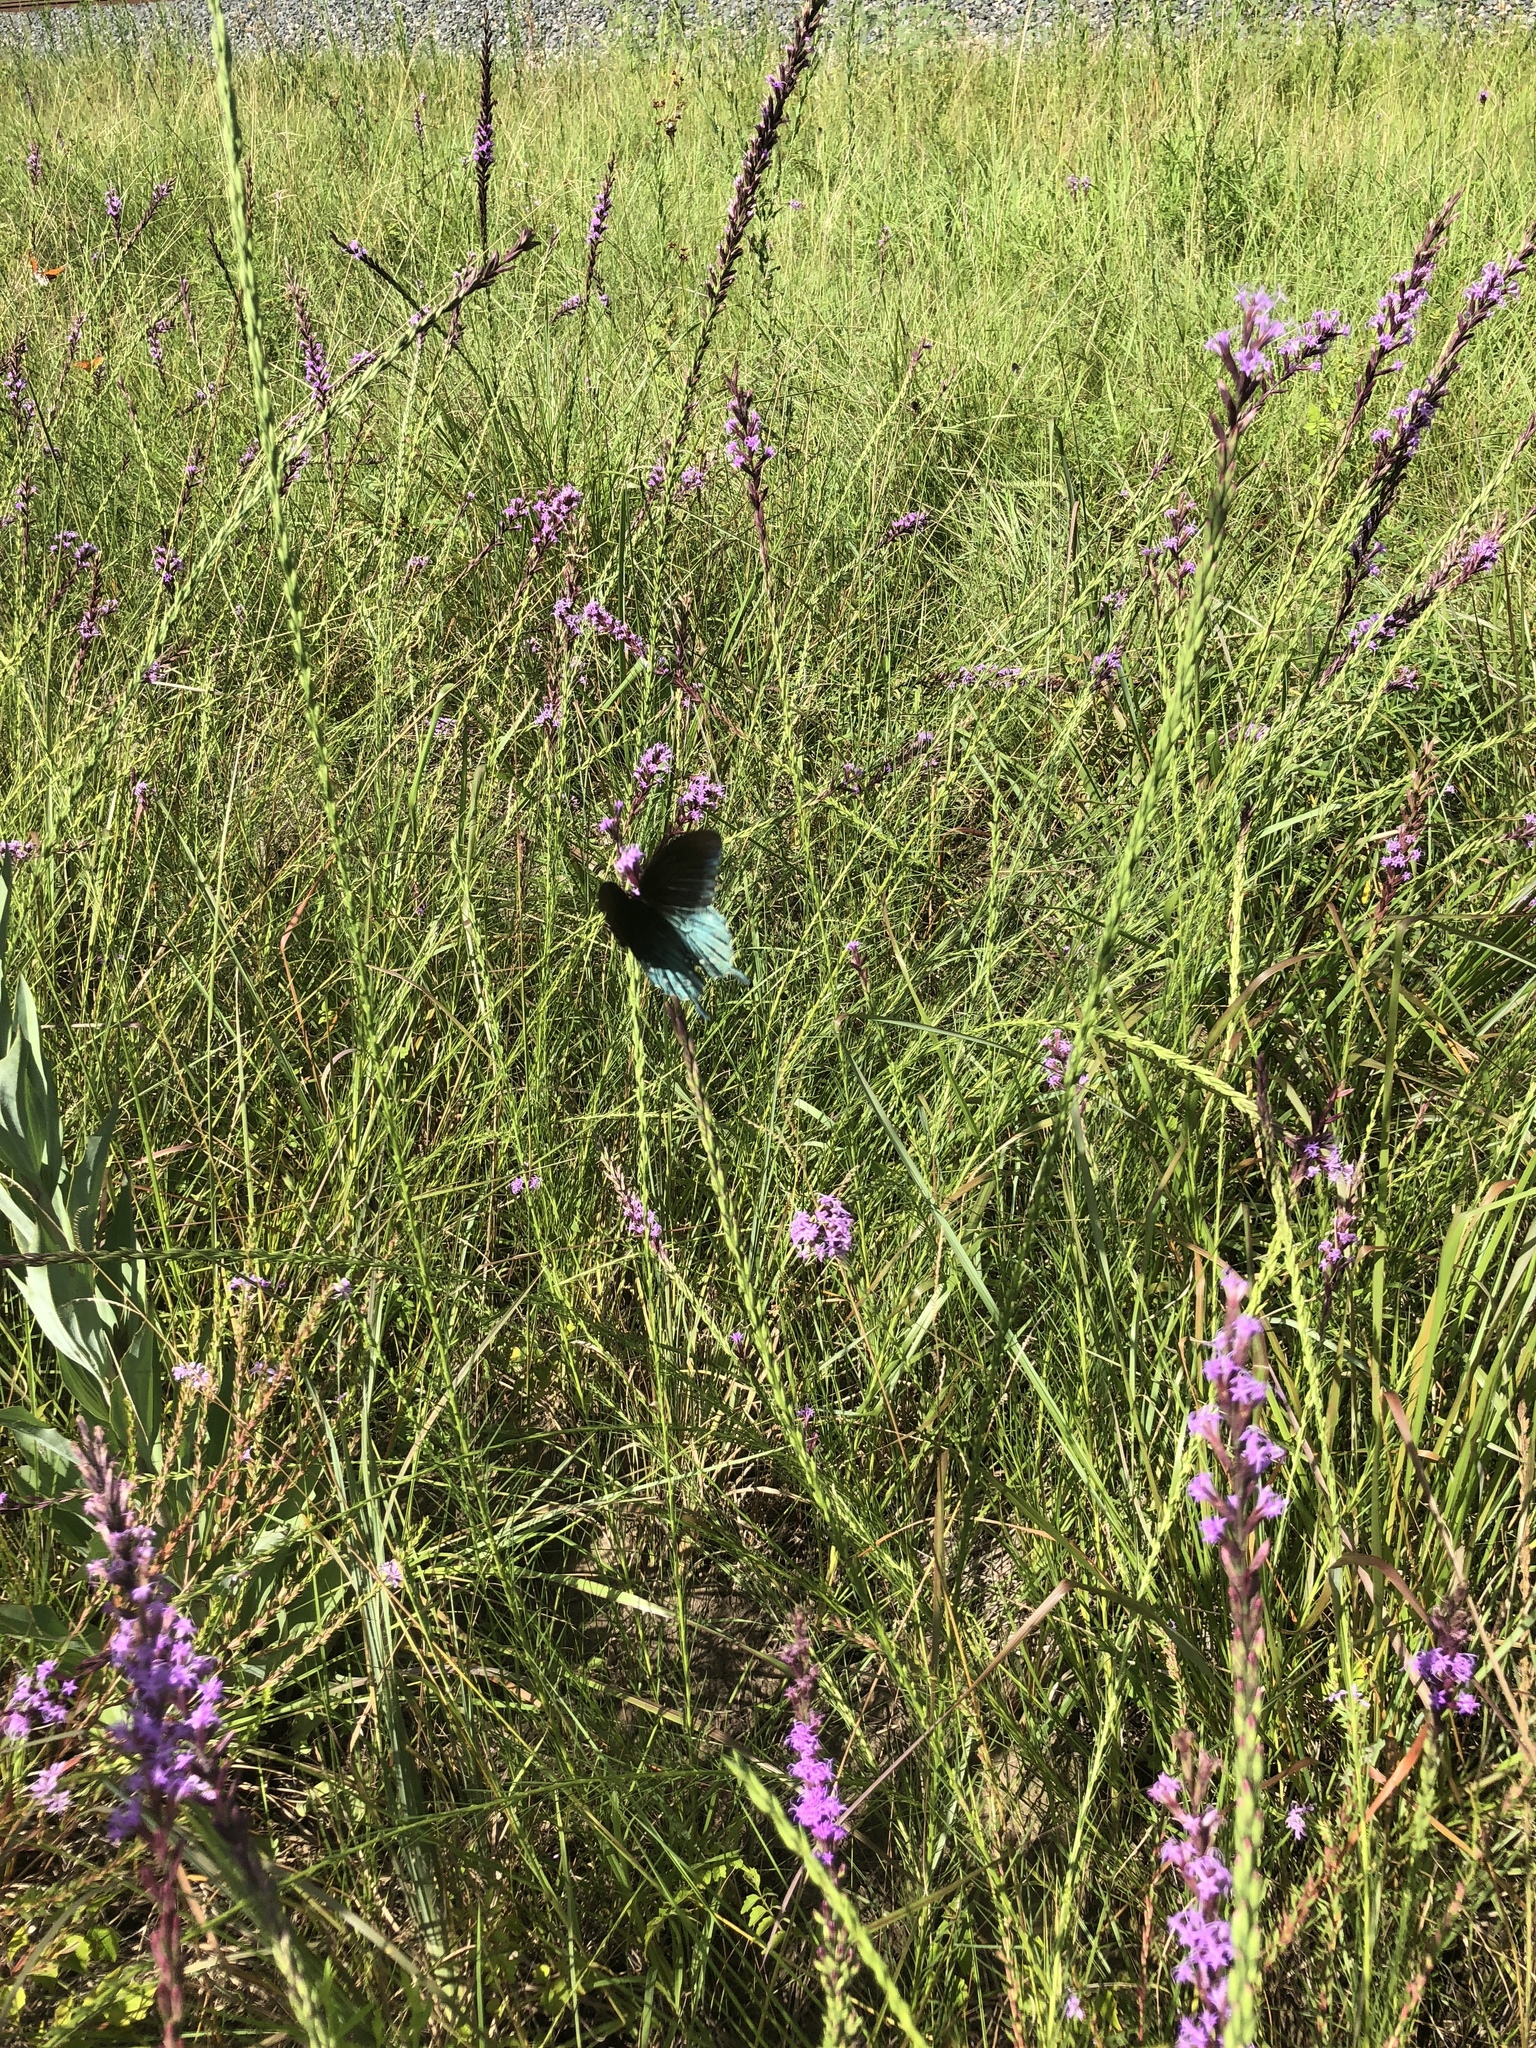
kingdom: Animalia
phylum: Arthropoda
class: Insecta
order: Lepidoptera
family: Papilionidae
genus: Battus
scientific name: Battus philenor
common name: Pipevine swallowtail
